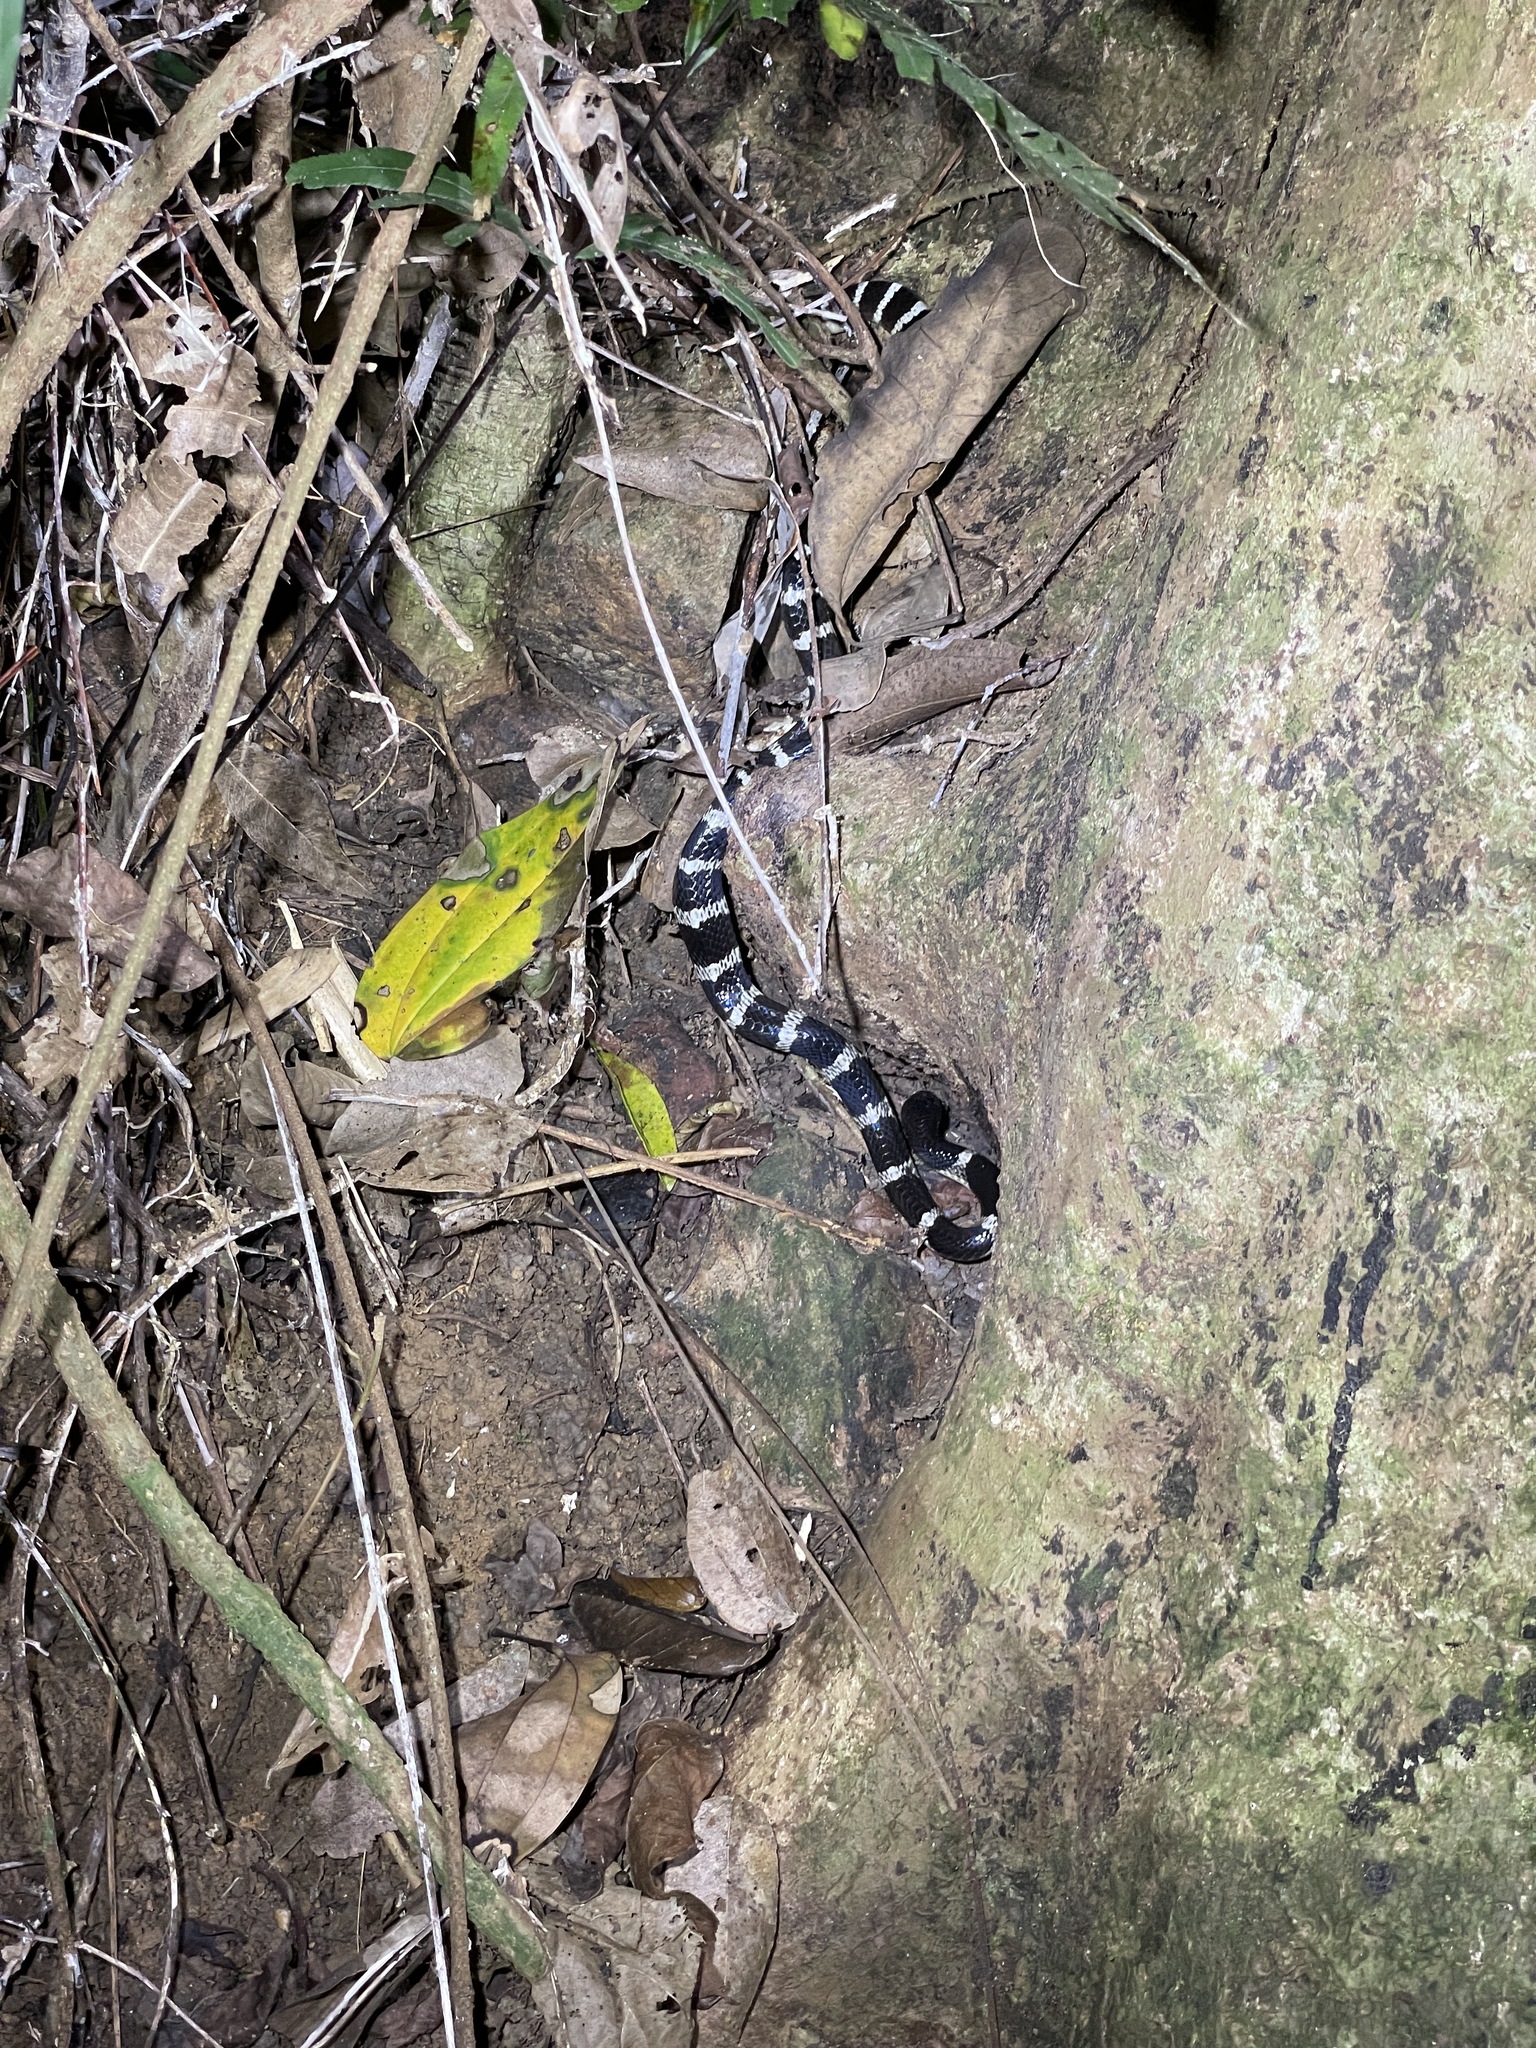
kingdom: Animalia
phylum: Chordata
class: Squamata
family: Elapidae
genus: Bungarus
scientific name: Bungarus multicinctus
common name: Many-banded krait
